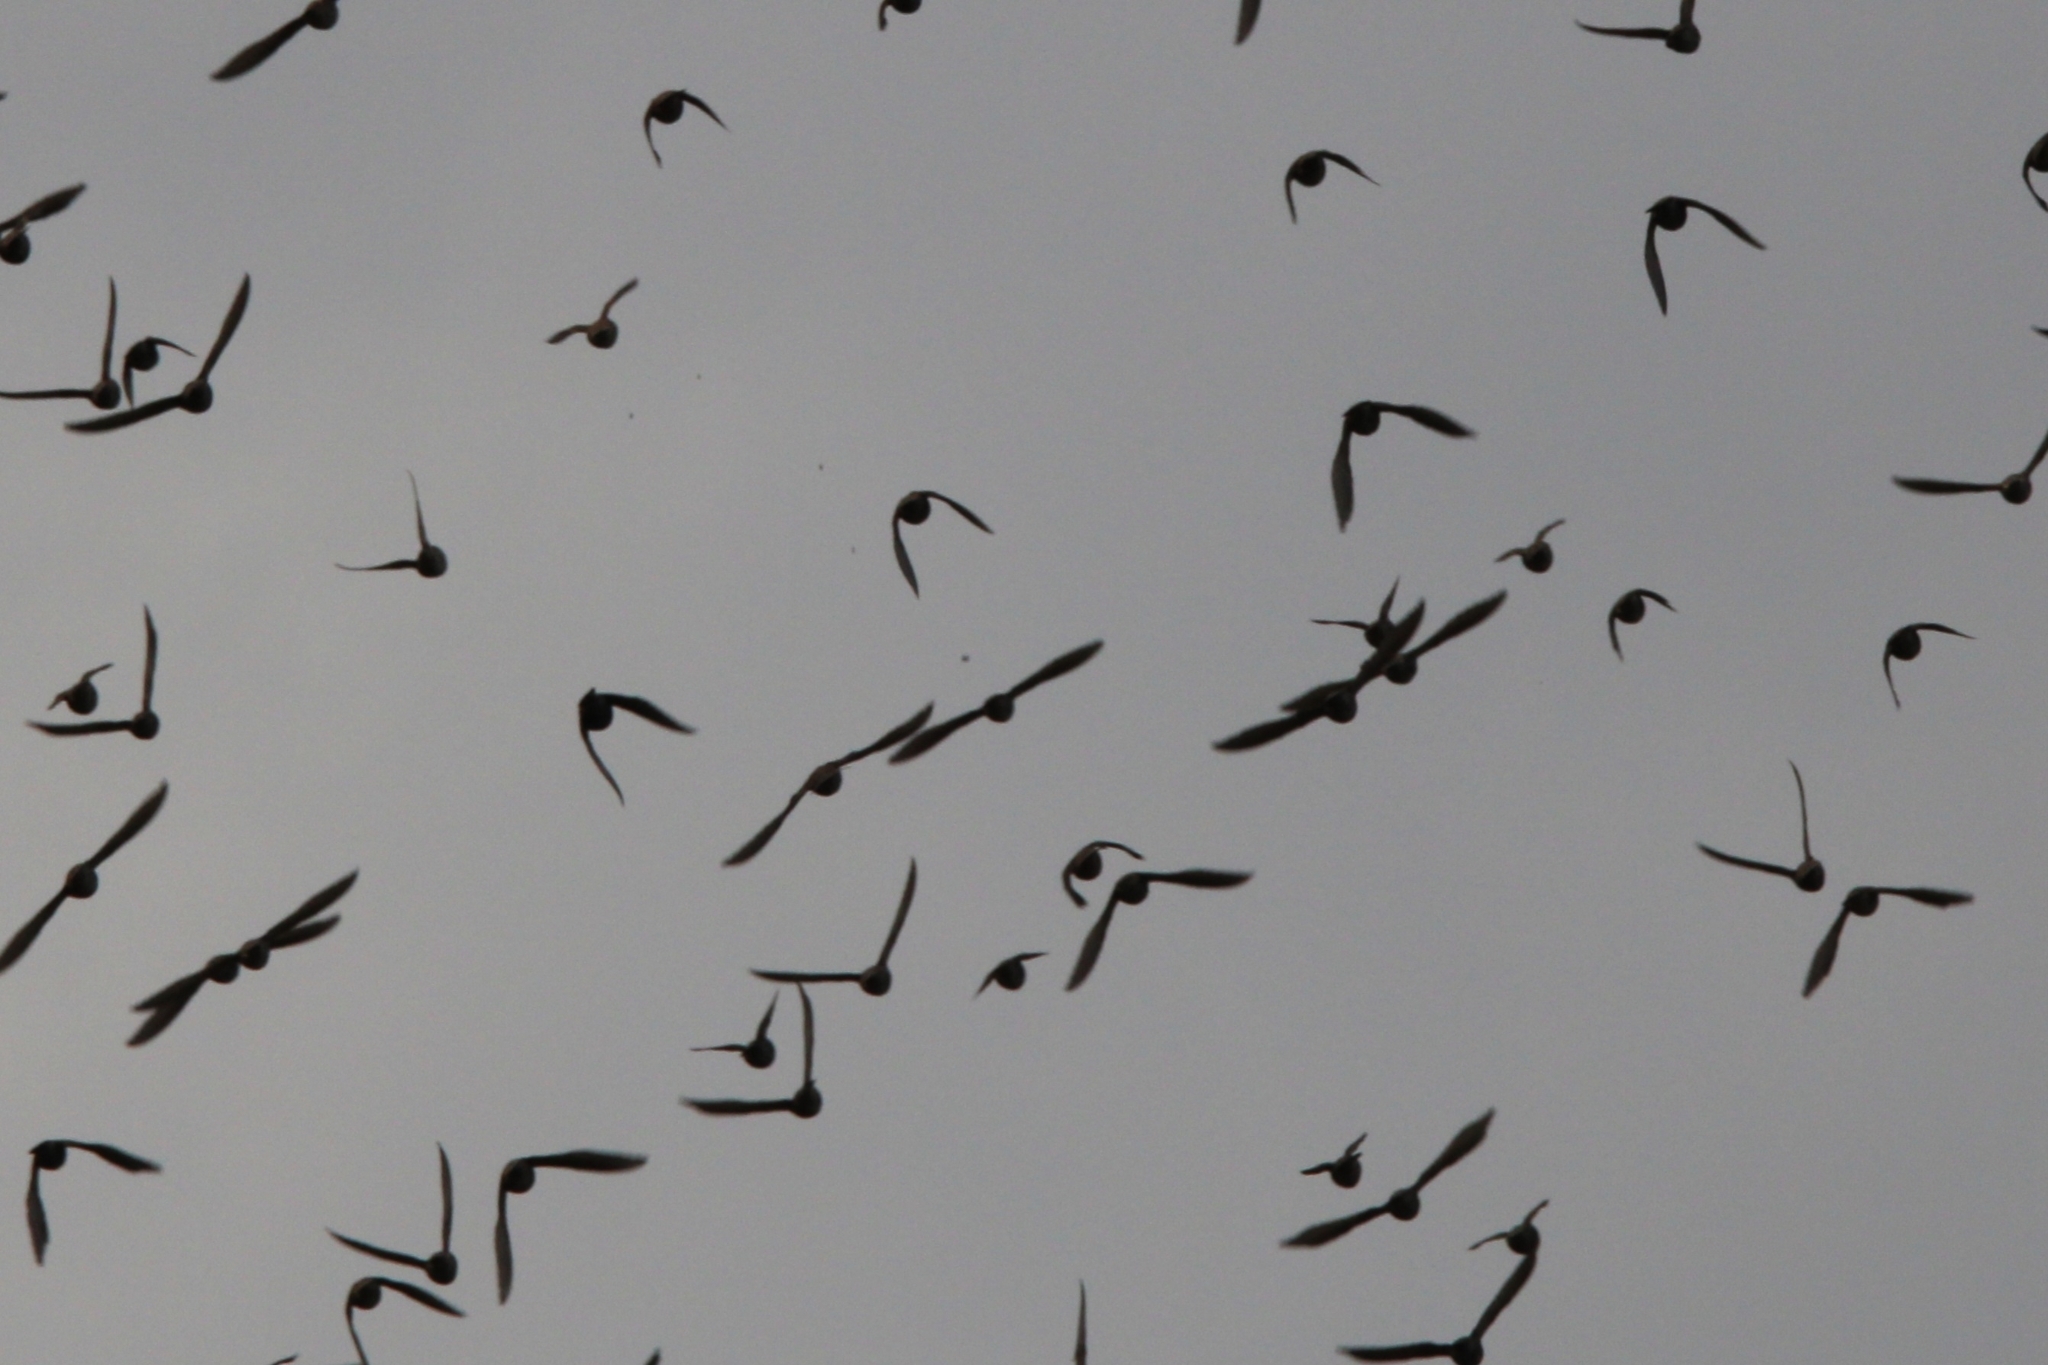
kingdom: Animalia
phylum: Chordata
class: Aves
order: Passeriformes
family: Sturnidae
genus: Sturnus
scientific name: Sturnus vulgaris
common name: Common starling
